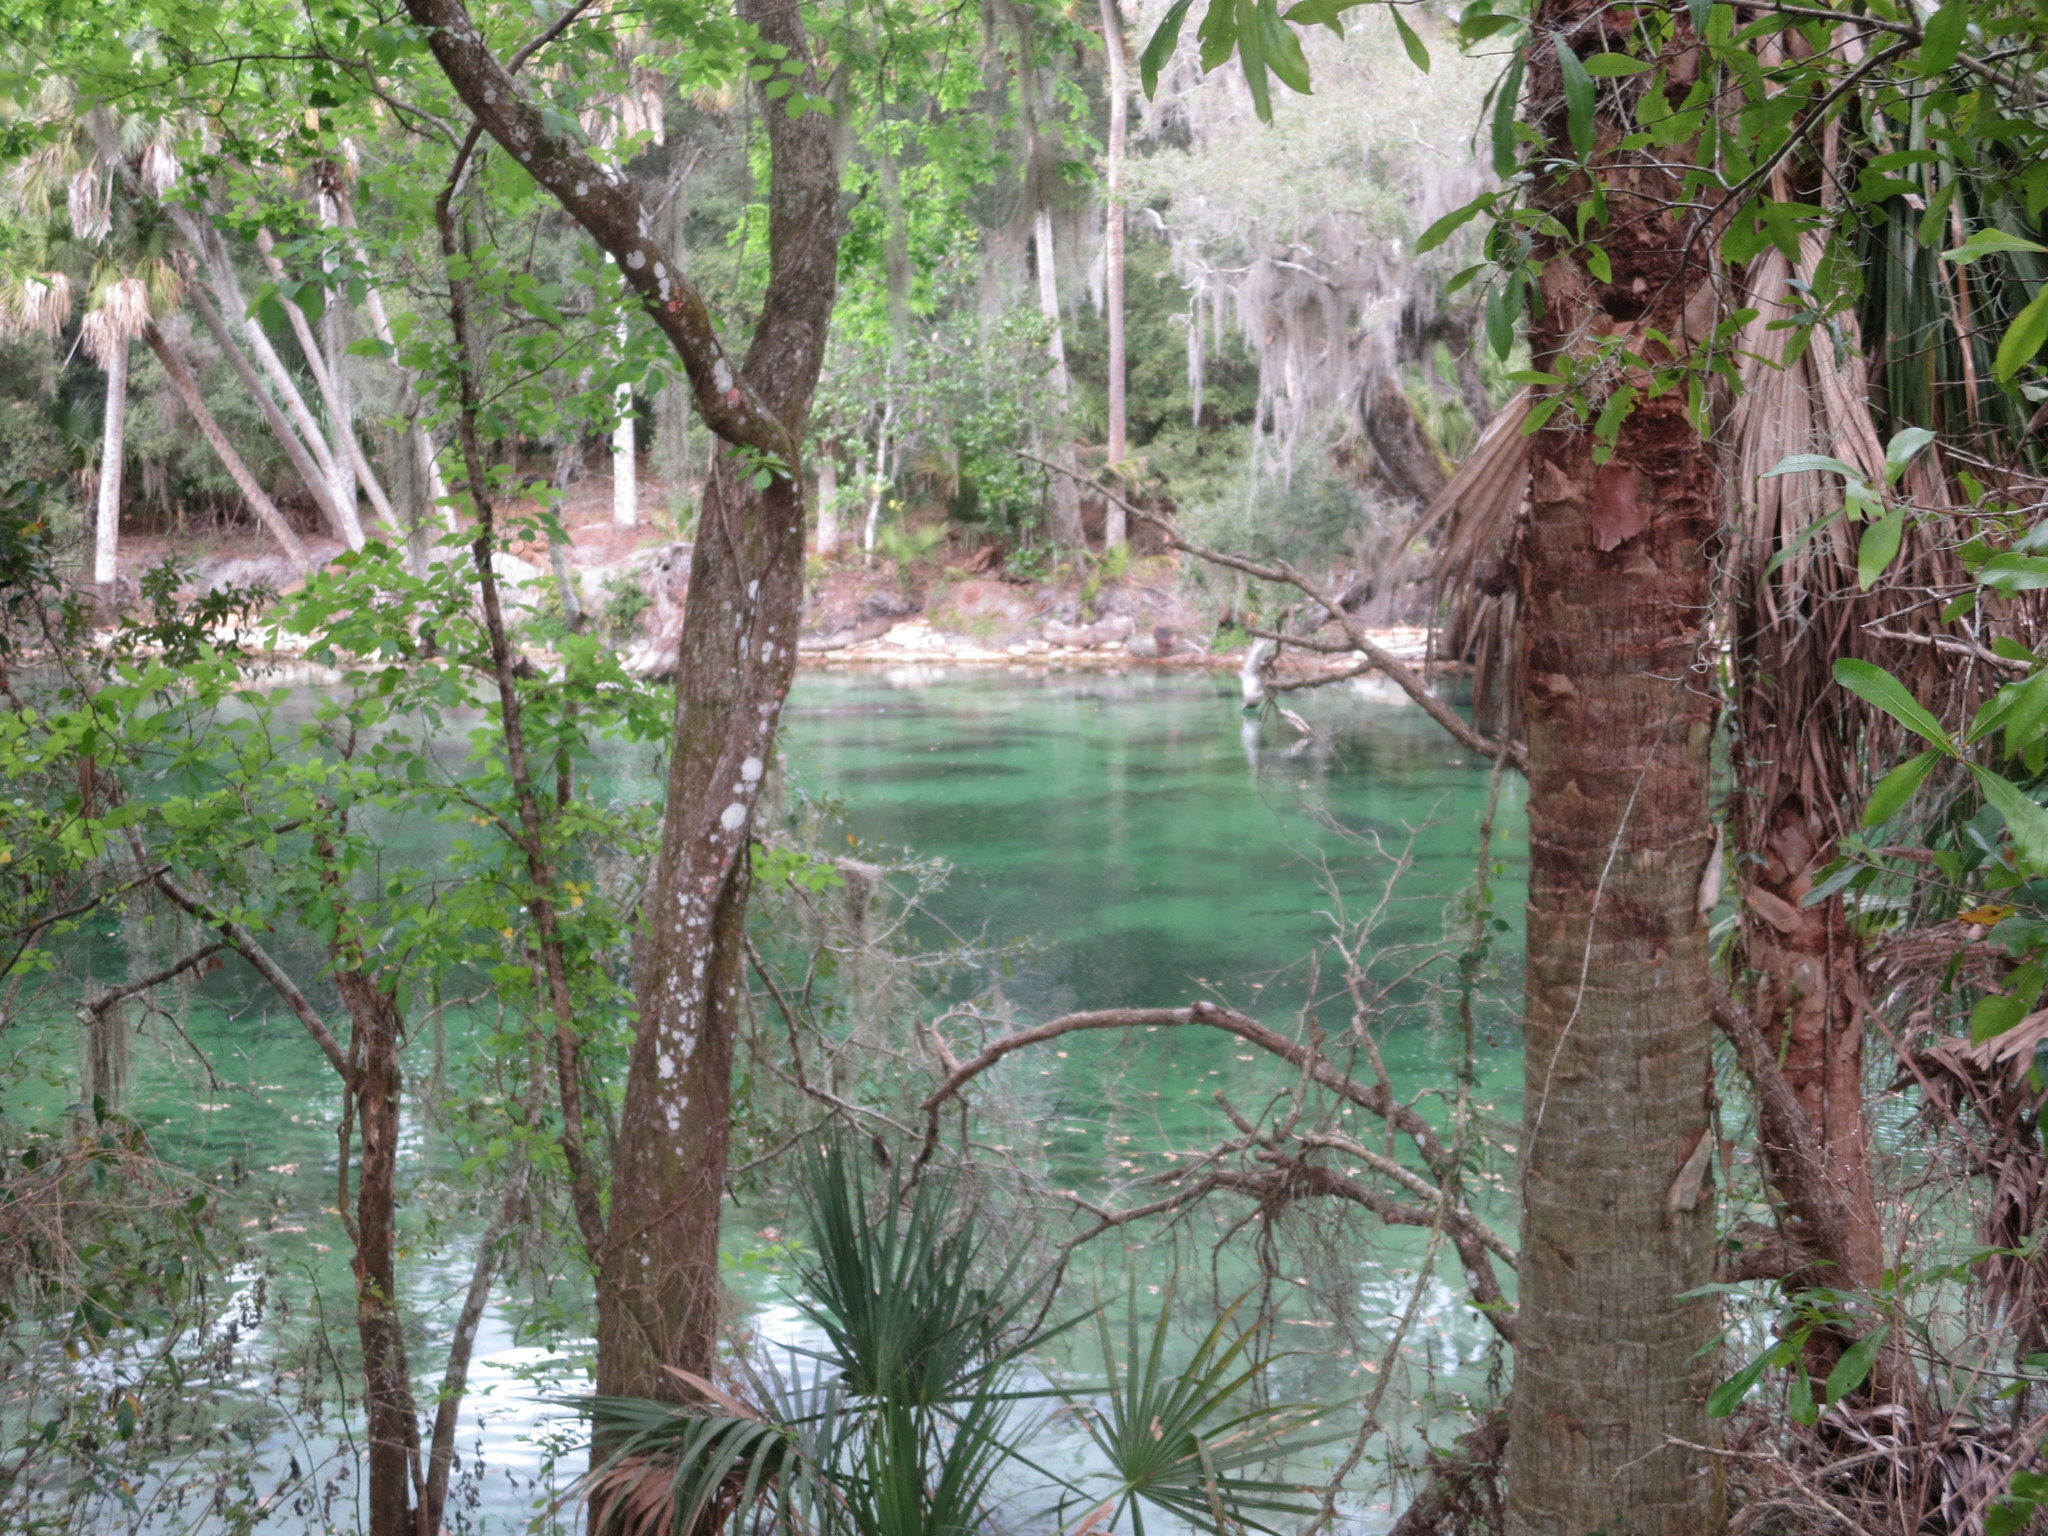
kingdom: Animalia
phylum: Chordata
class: Mammalia
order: Sirenia
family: Trichechidae
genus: Trichechus
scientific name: Trichechus manatus
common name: West indian manatee
